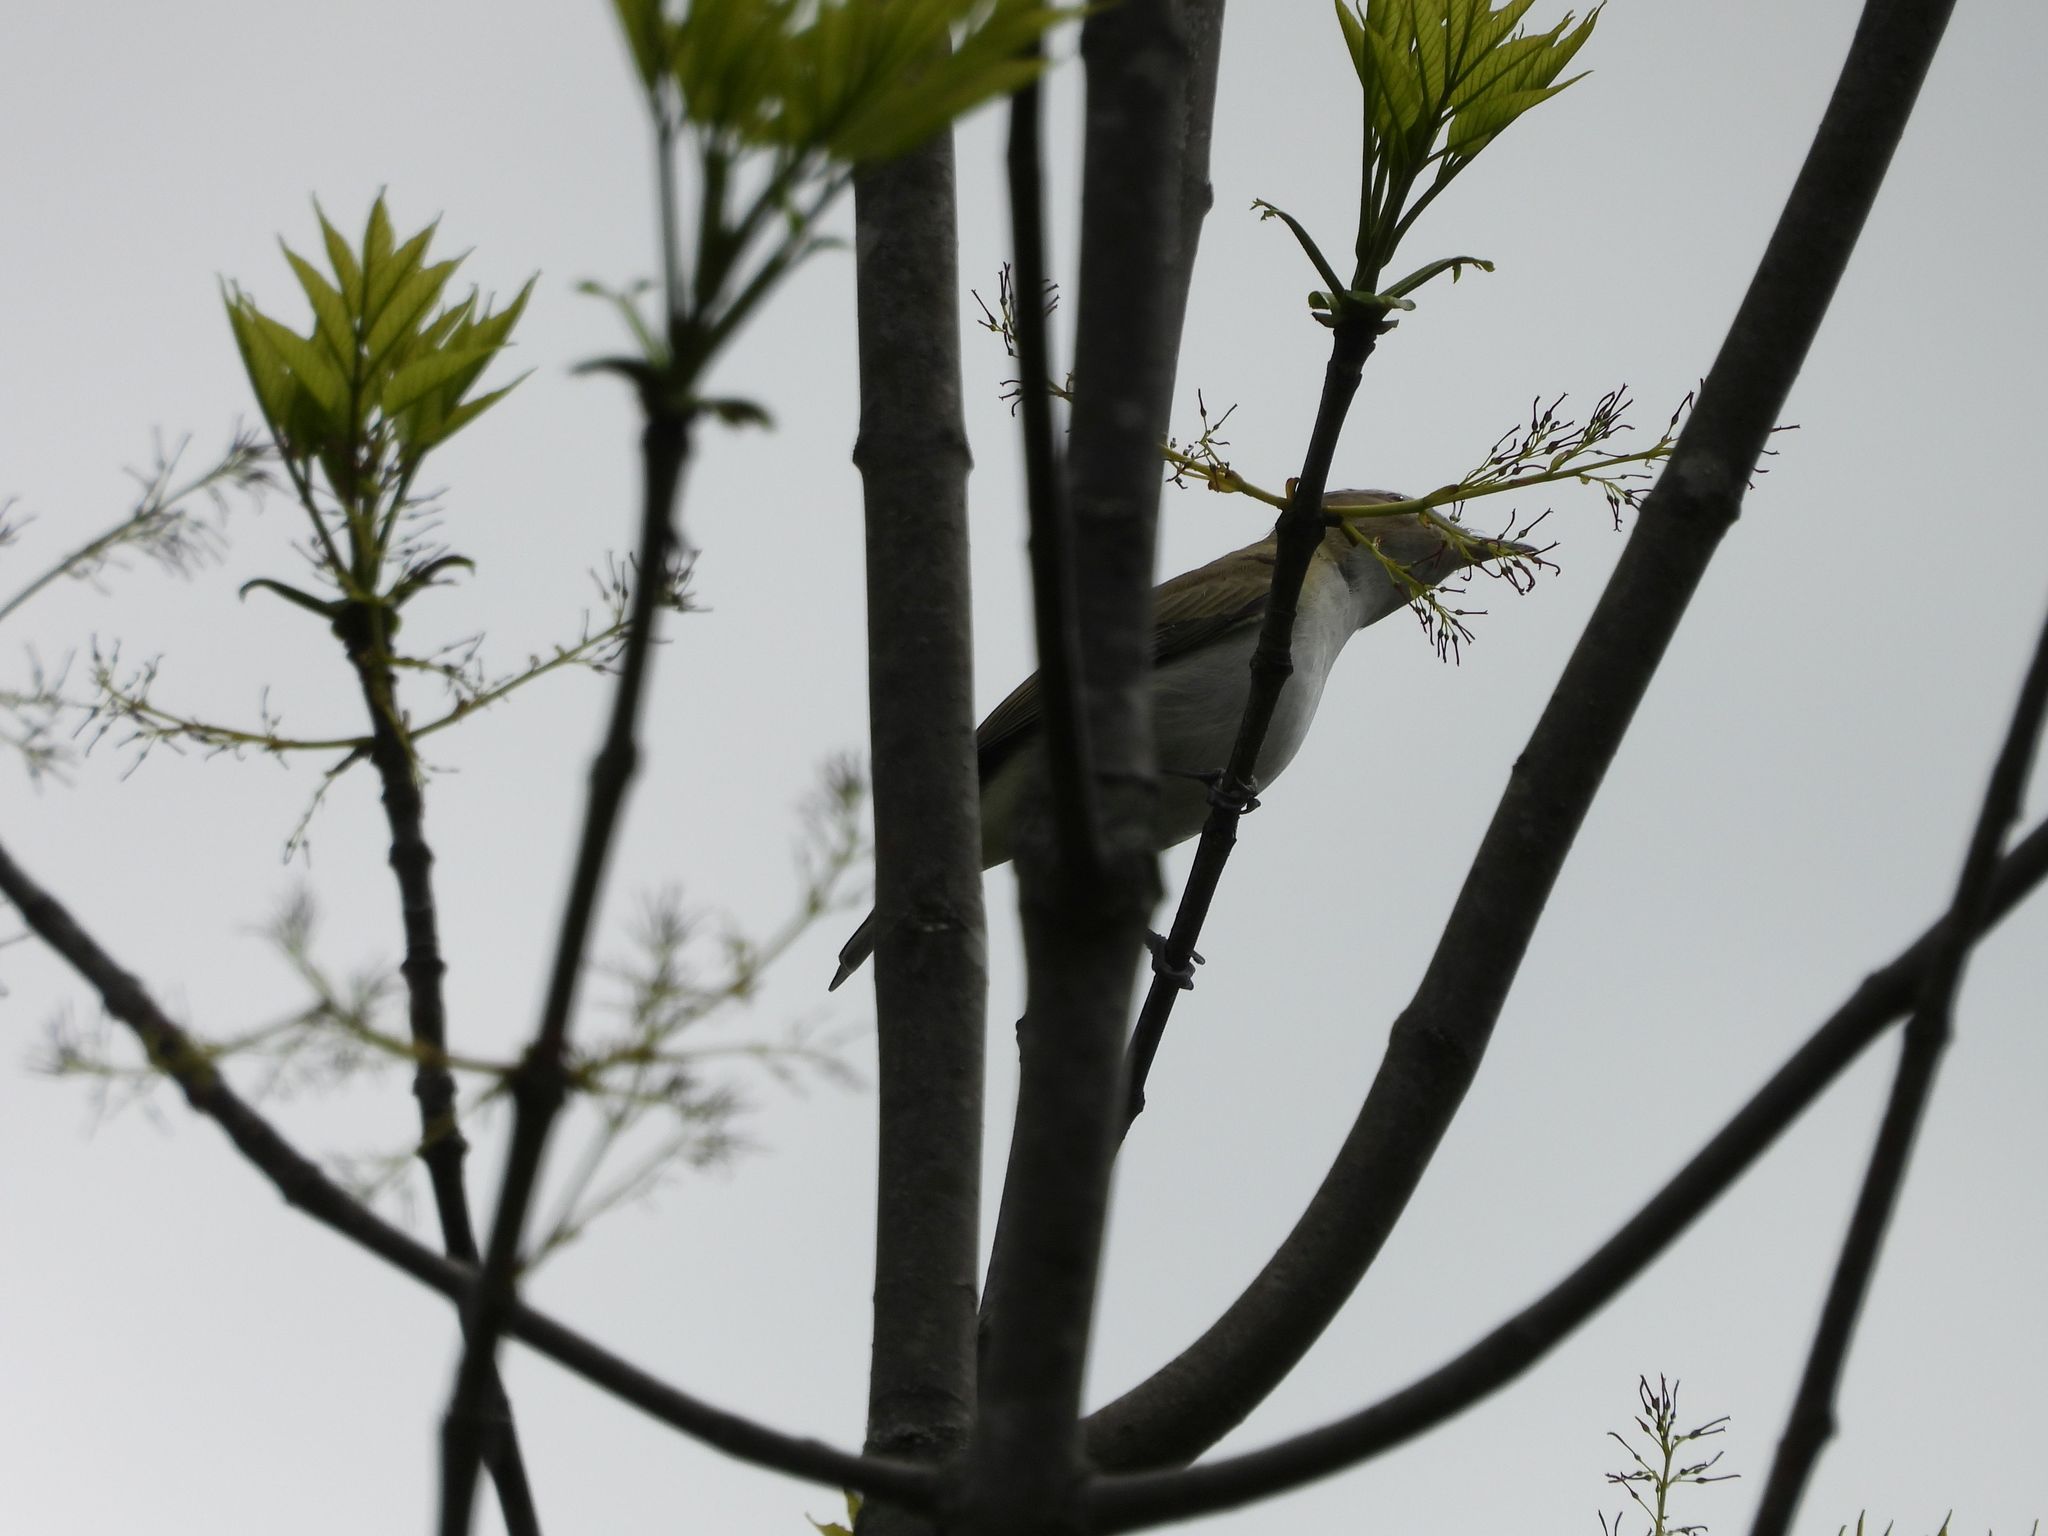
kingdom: Animalia
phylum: Chordata
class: Aves
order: Passeriformes
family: Vireonidae
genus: Vireo
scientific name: Vireo olivaceus
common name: Red-eyed vireo
